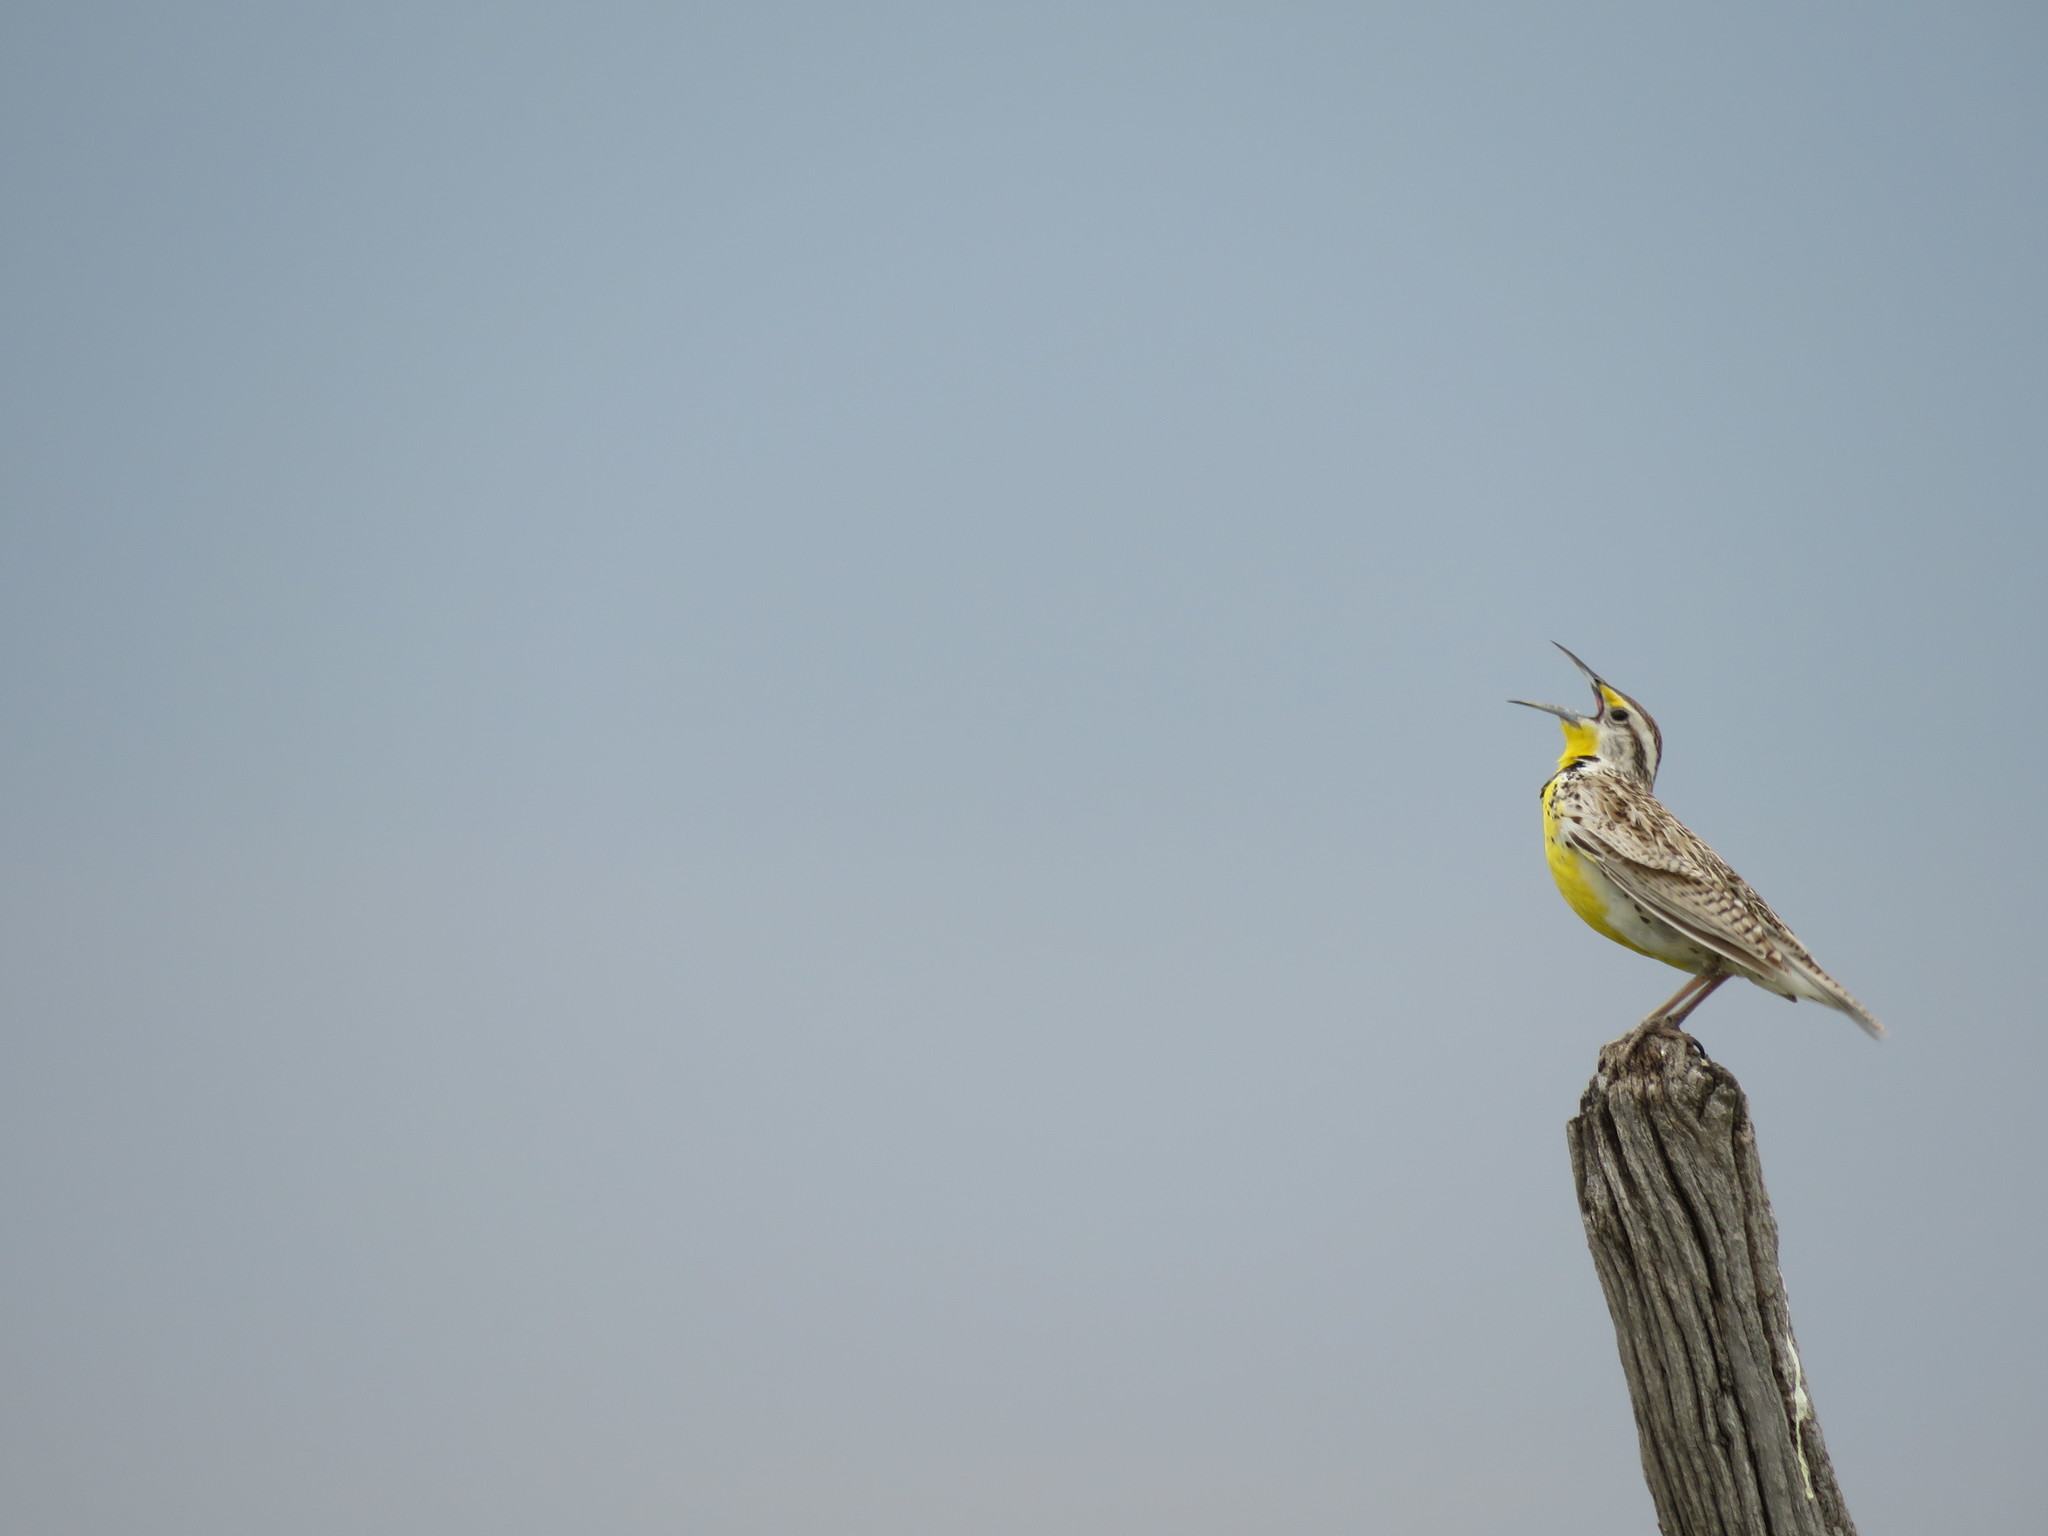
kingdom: Animalia
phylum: Chordata
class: Aves
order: Passeriformes
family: Icteridae
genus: Sturnella
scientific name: Sturnella neglecta
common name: Western meadowlark
